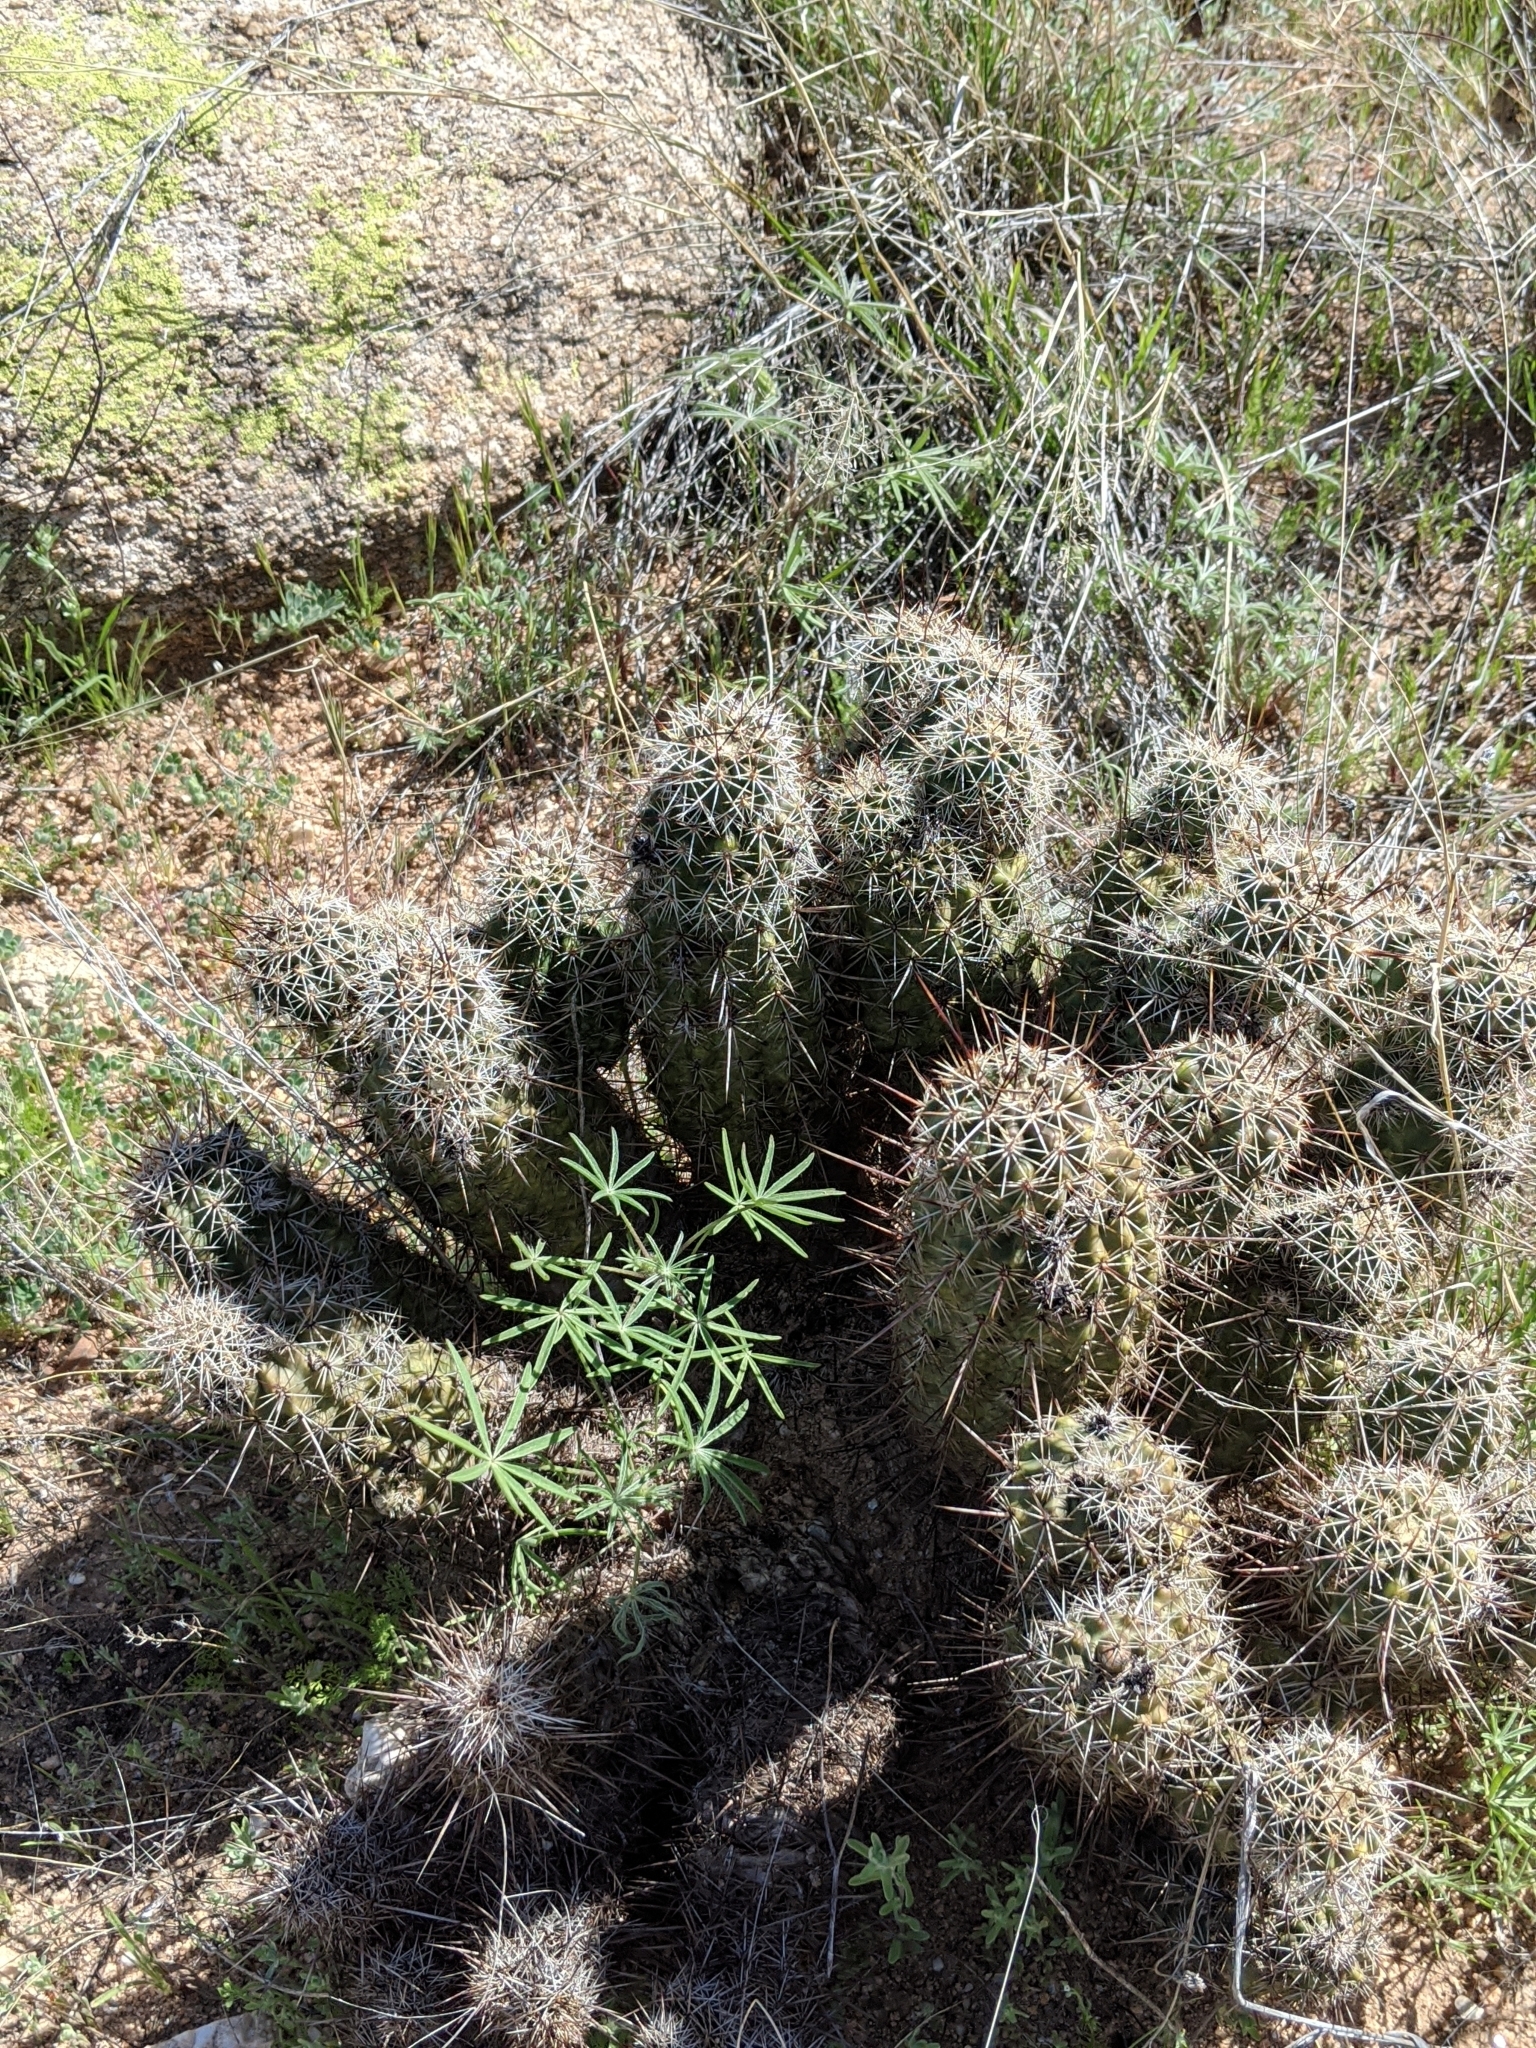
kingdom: Plantae
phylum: Tracheophyta
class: Magnoliopsida
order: Caryophyllales
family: Cactaceae
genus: Echinocereus
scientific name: Echinocereus fasciculatus
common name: Bundle hedgehog
